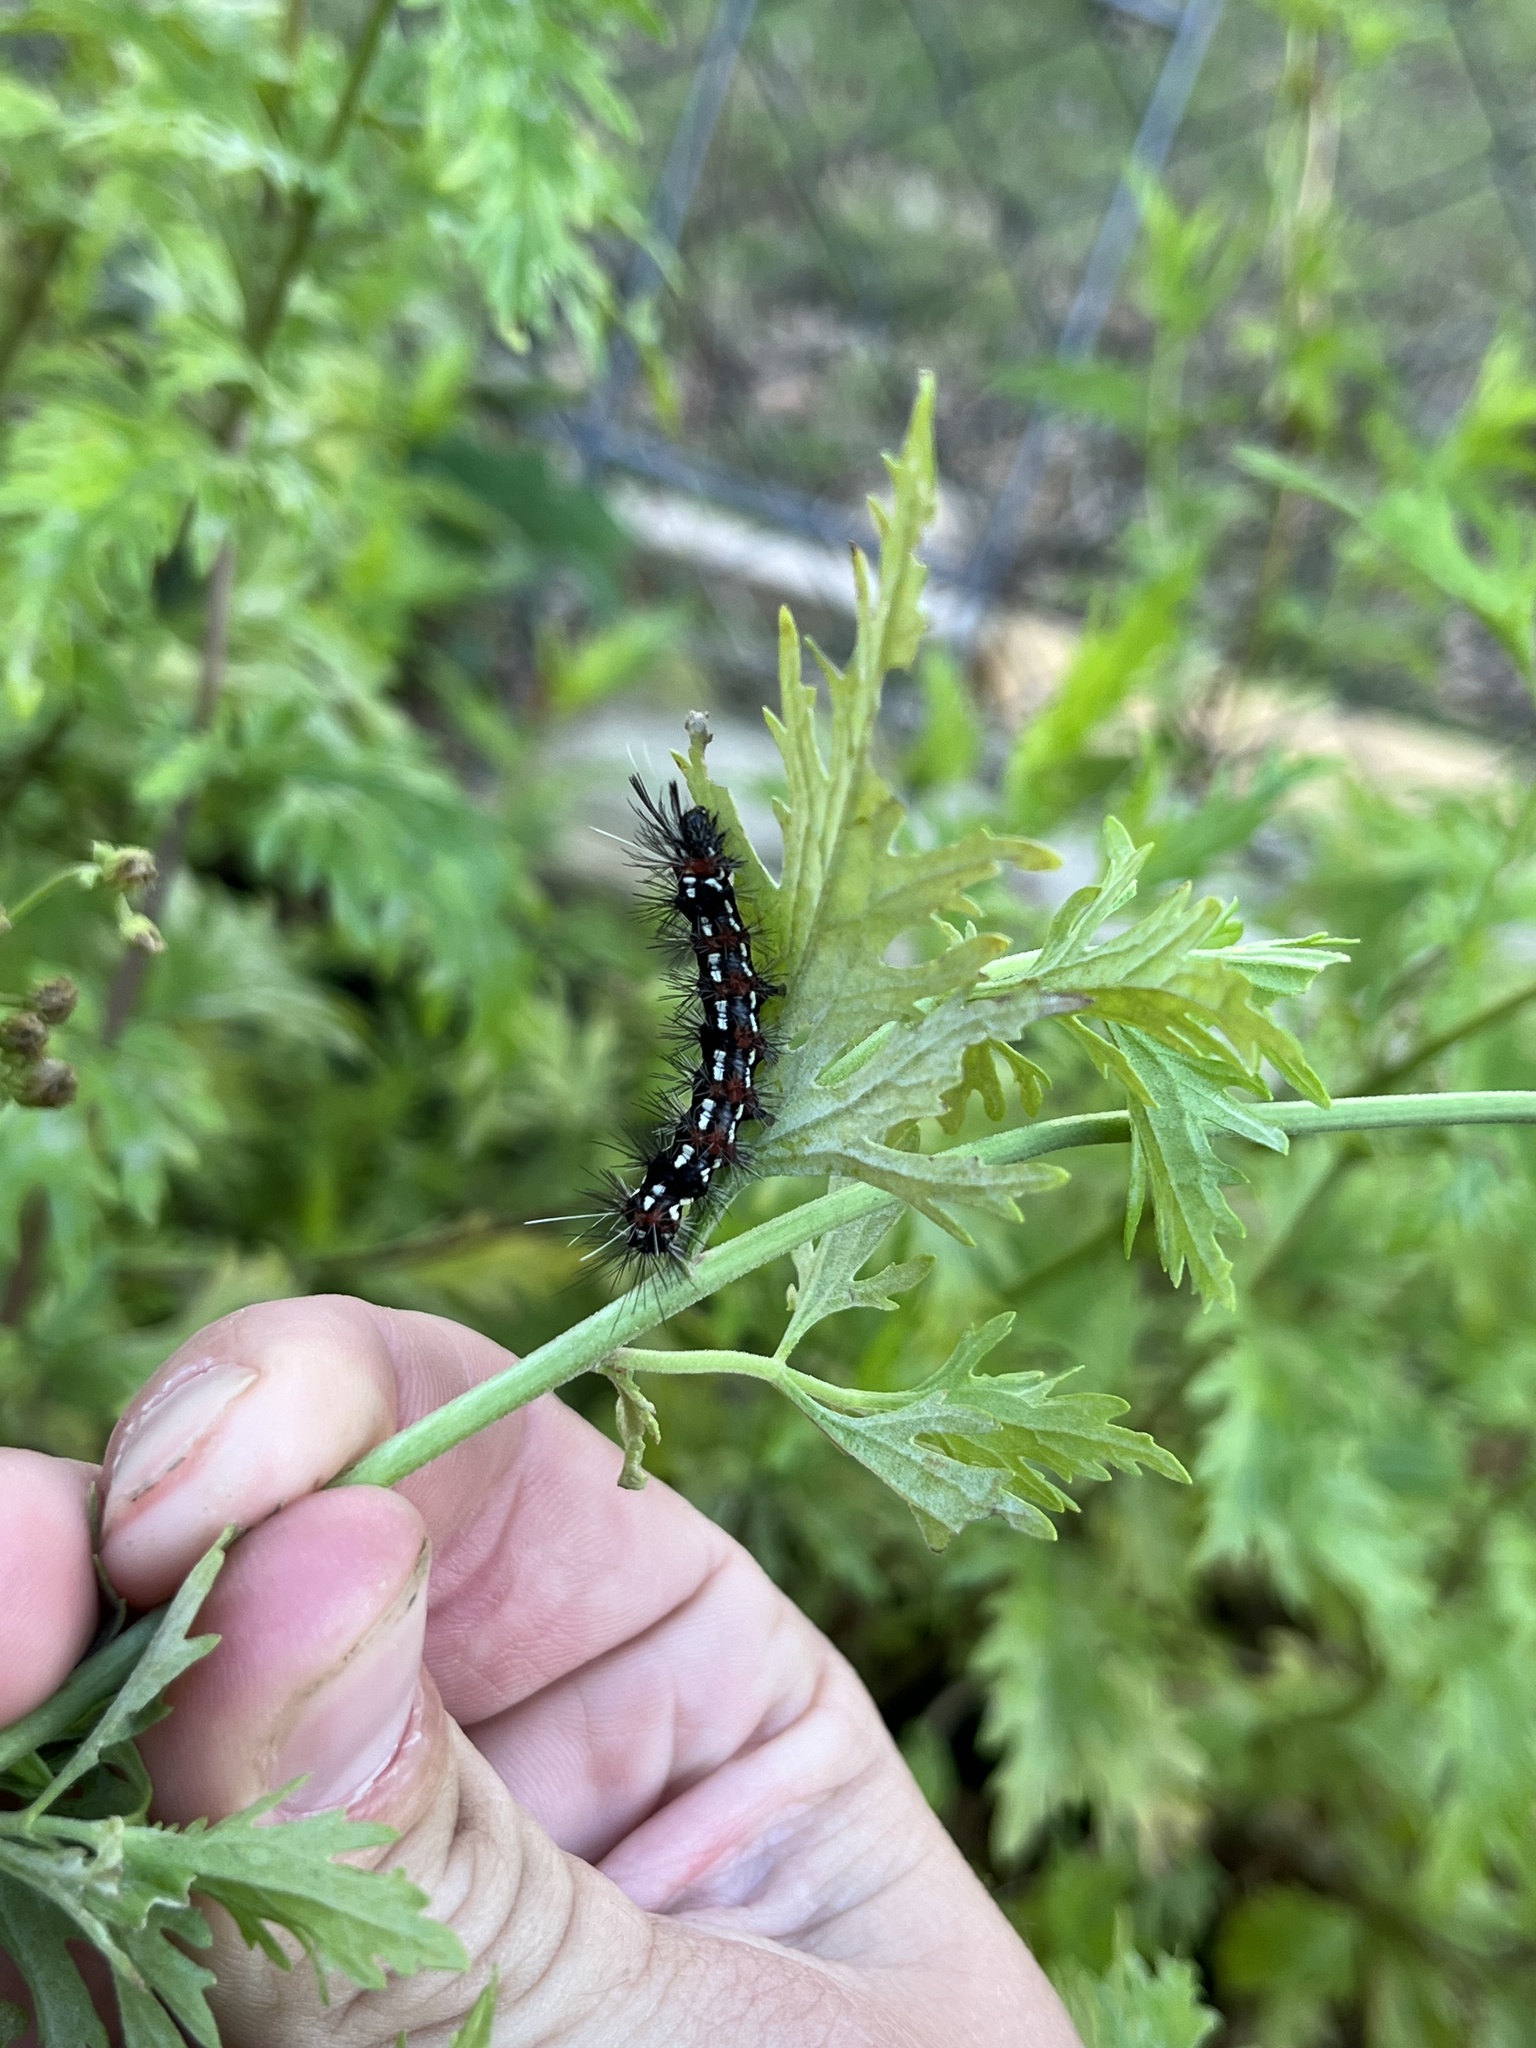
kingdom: Animalia
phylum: Arthropoda
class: Insecta
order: Lepidoptera
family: Erebidae
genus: Pareuchaetes
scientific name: Pareuchaetes insulata
